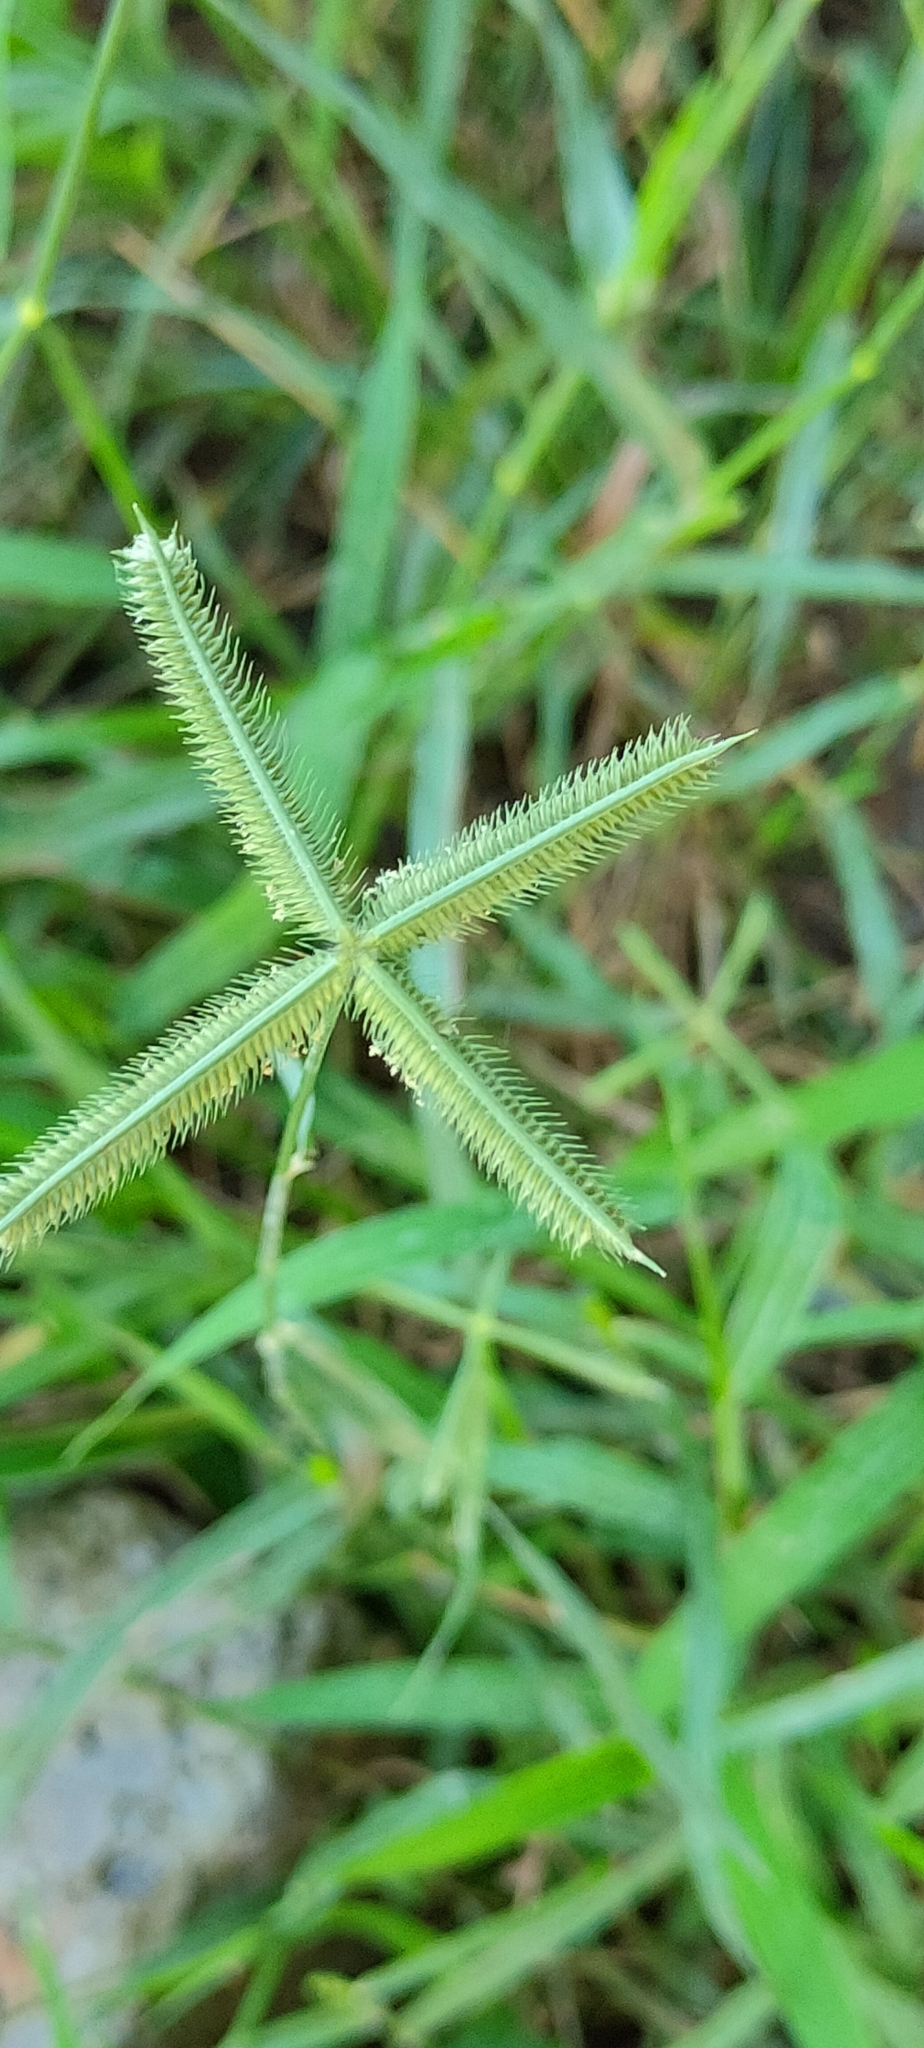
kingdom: Plantae
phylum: Tracheophyta
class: Liliopsida
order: Poales
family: Poaceae
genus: Dactyloctenium
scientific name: Dactyloctenium aegyptium
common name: Egyptian grass
